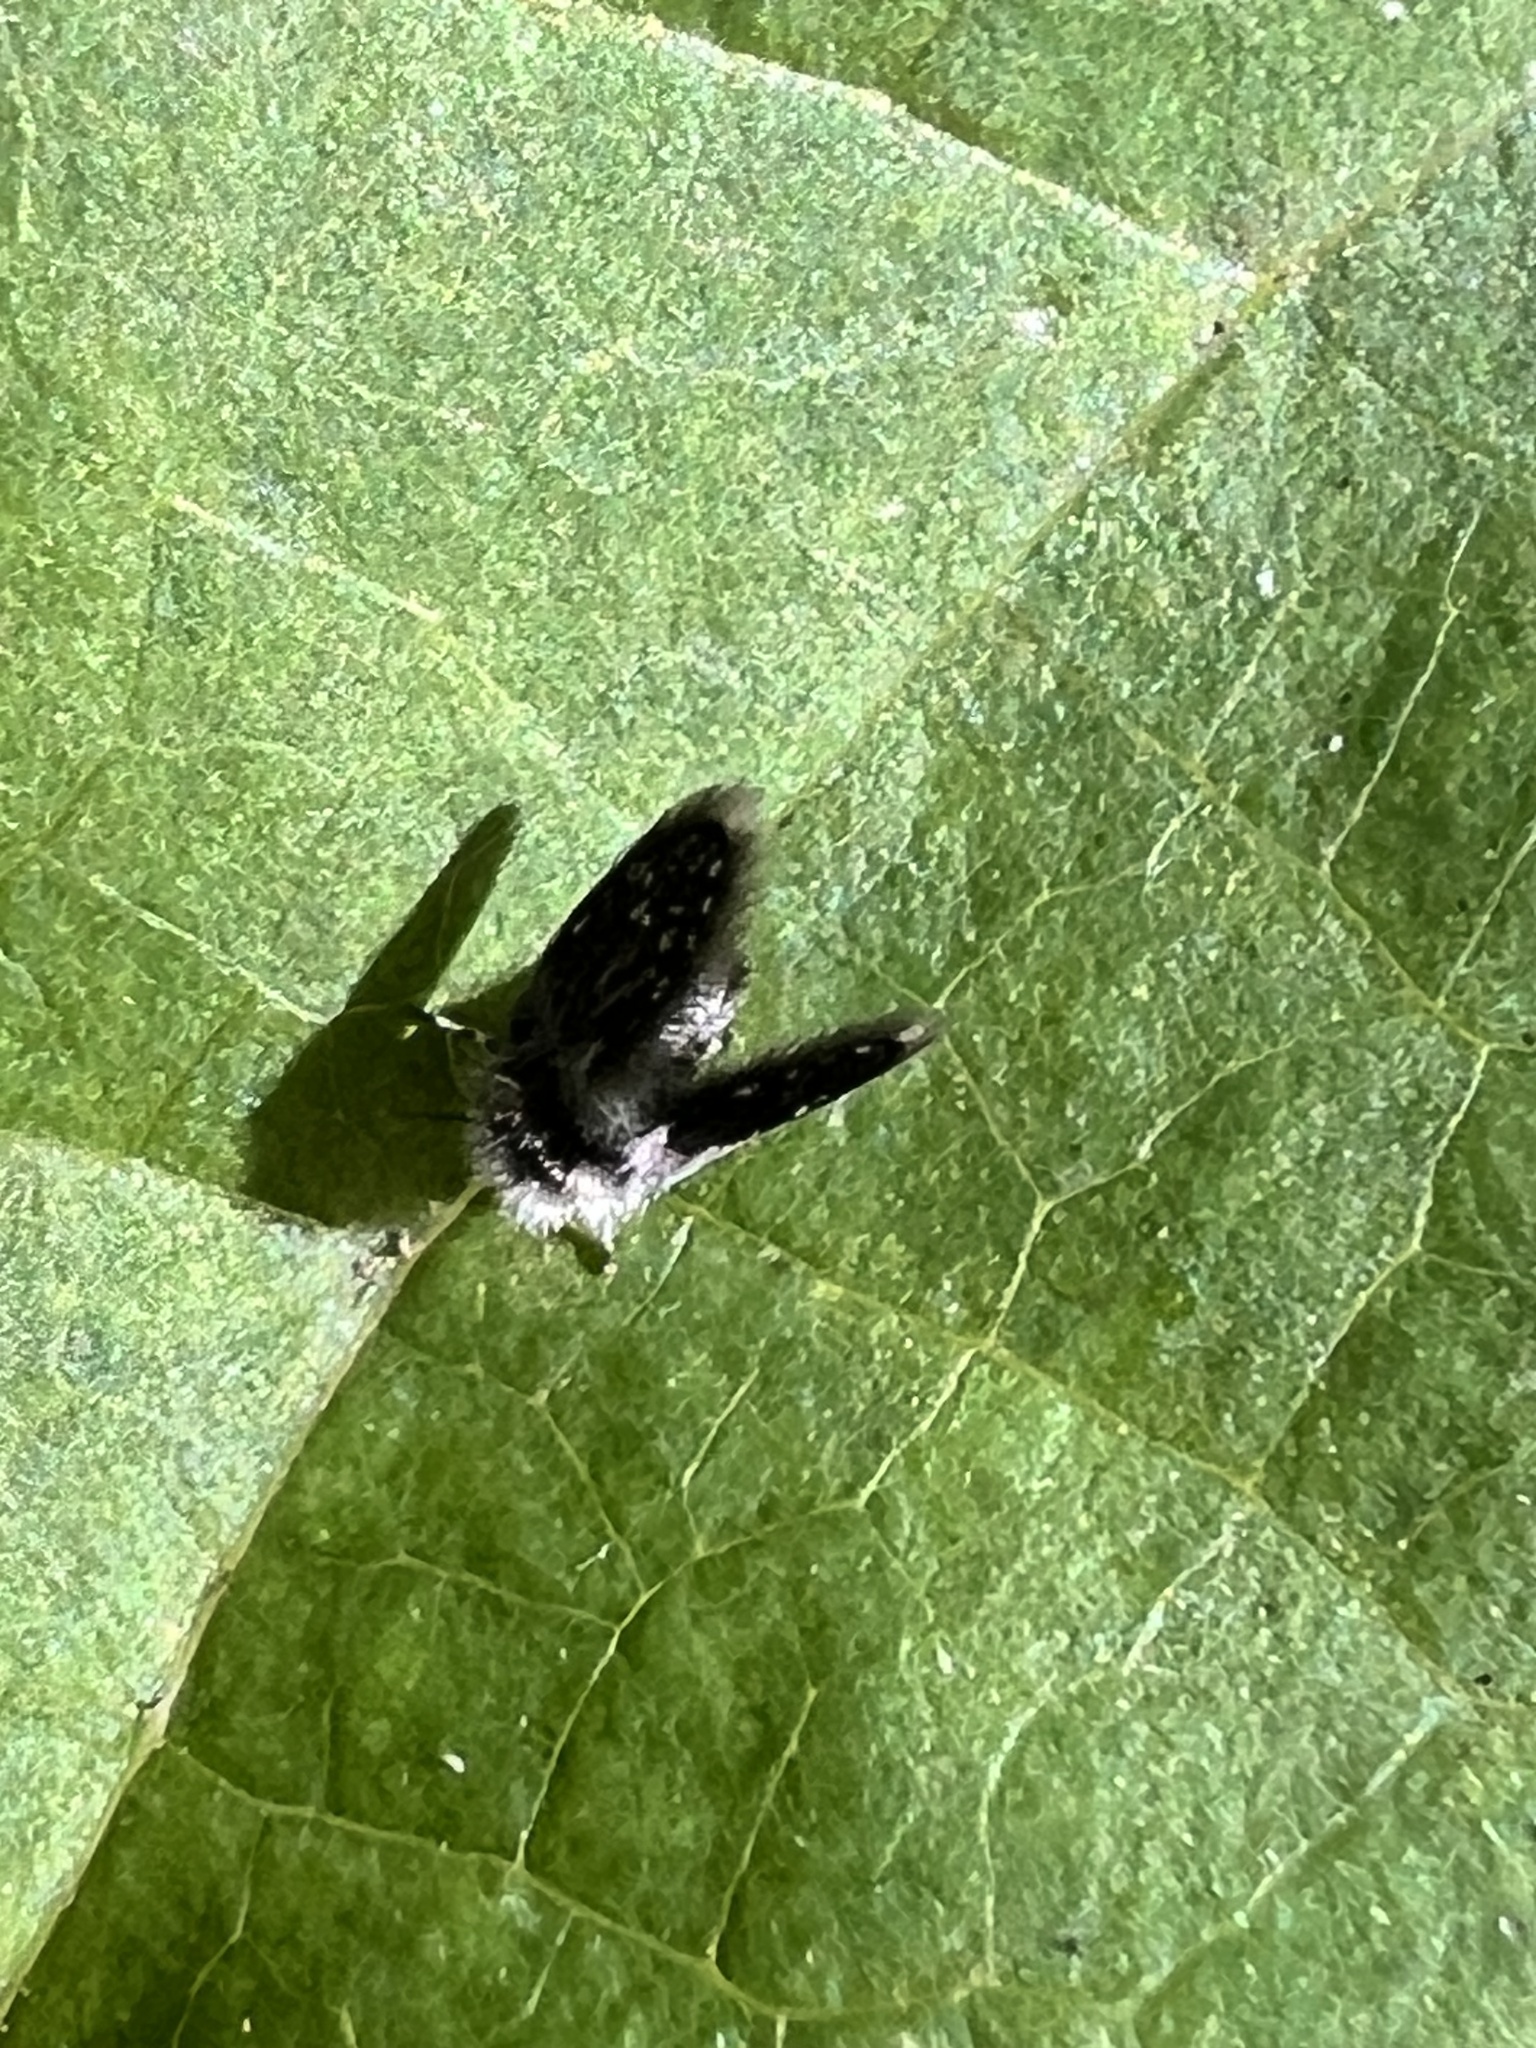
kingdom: Animalia
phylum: Arthropoda
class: Insecta
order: Diptera
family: Psychodidae
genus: Setomima
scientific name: Setomima
